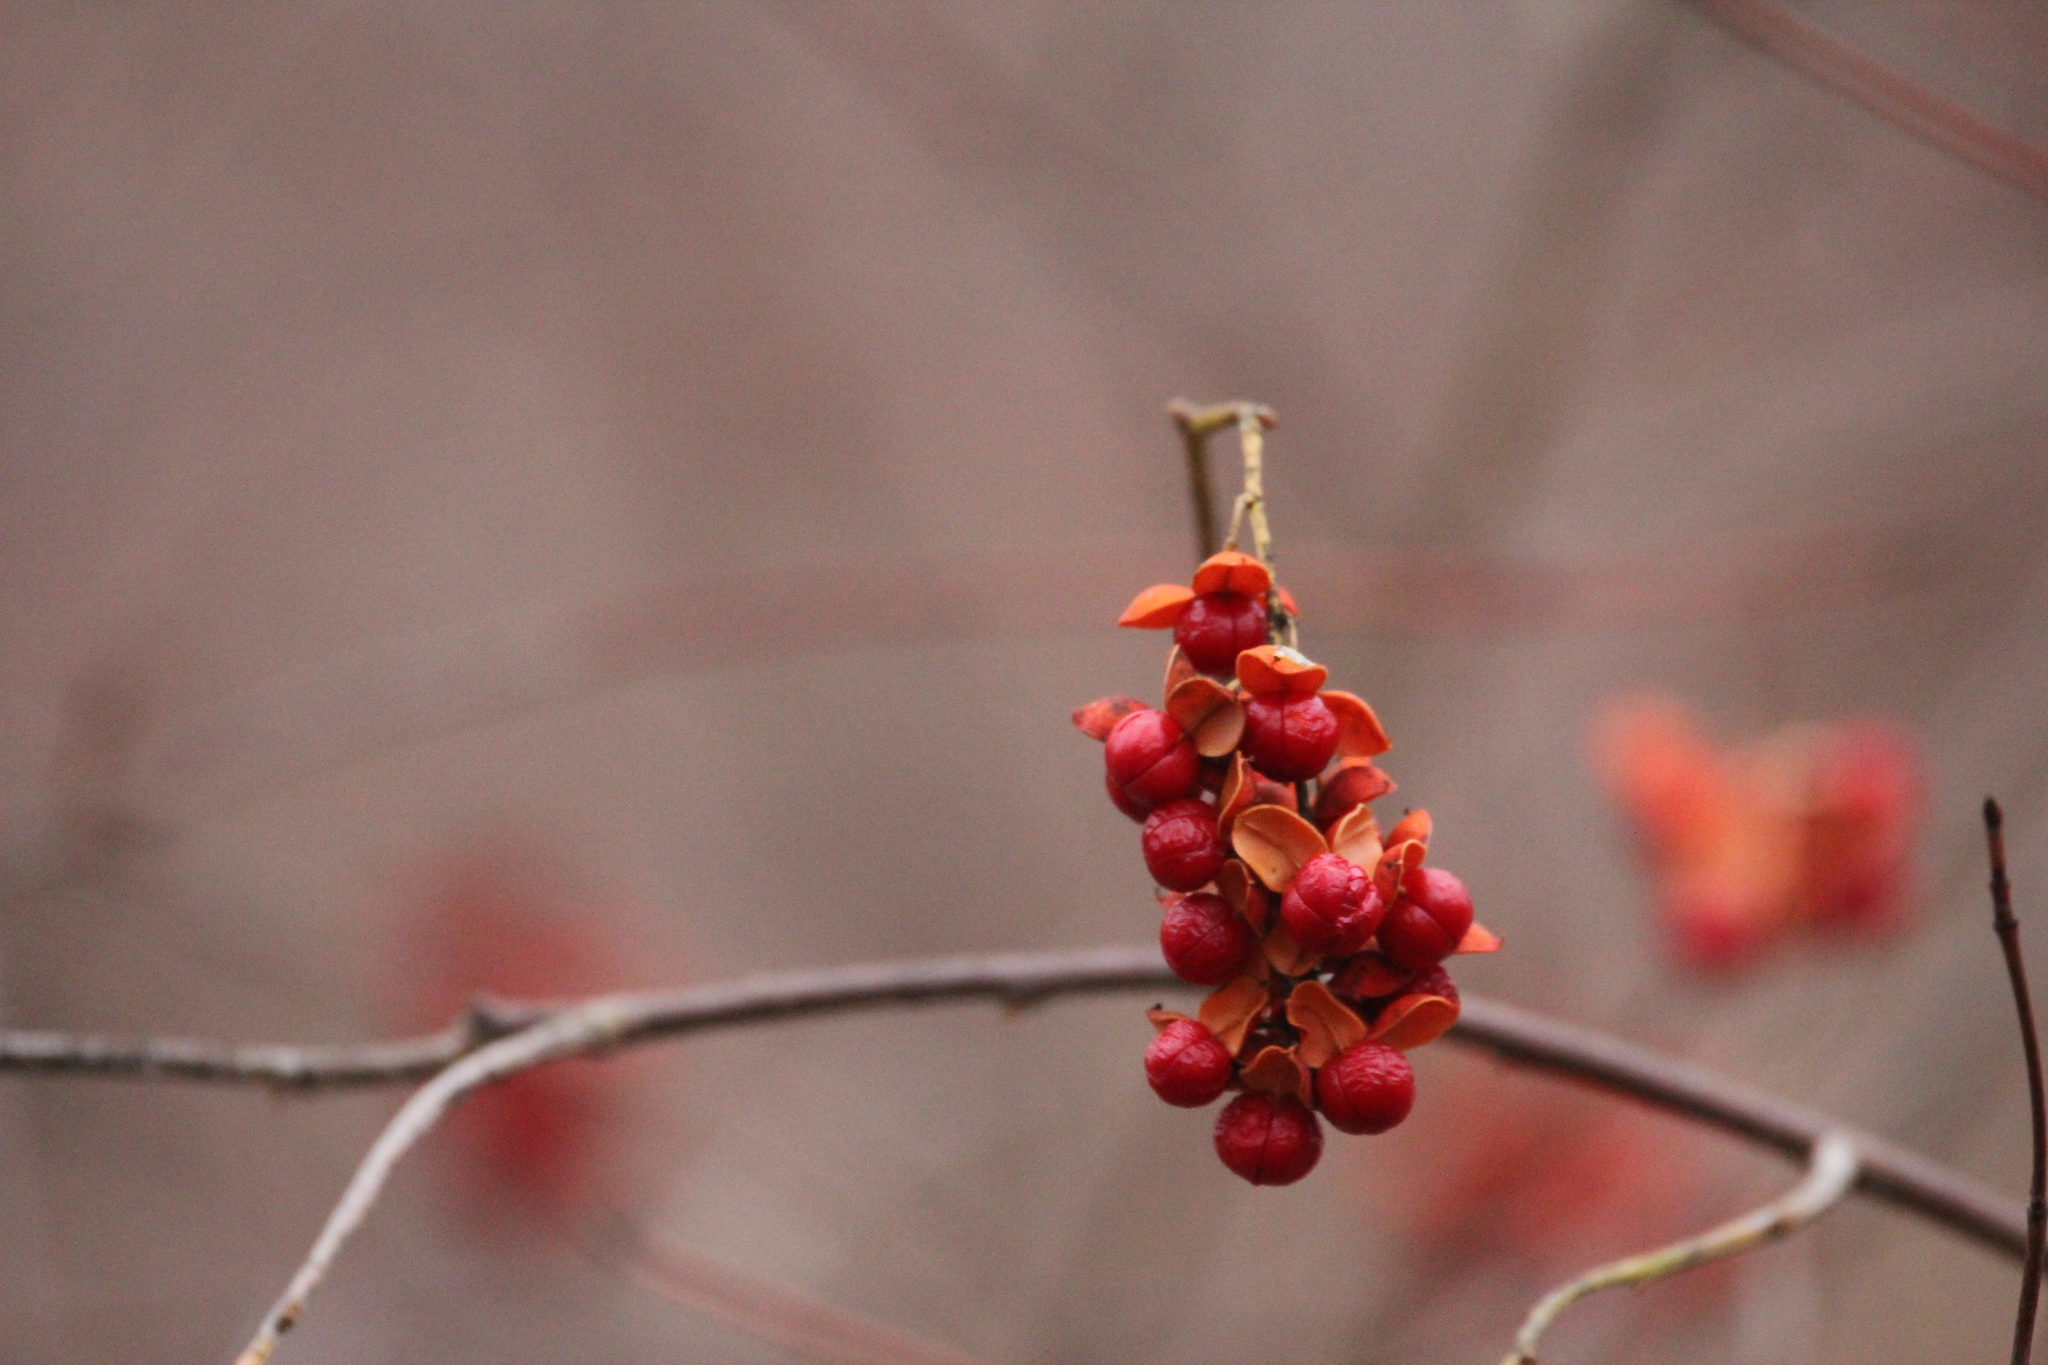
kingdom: Plantae
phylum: Tracheophyta
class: Magnoliopsida
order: Celastrales
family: Celastraceae
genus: Celastrus
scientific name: Celastrus scandens
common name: American bittersweet
